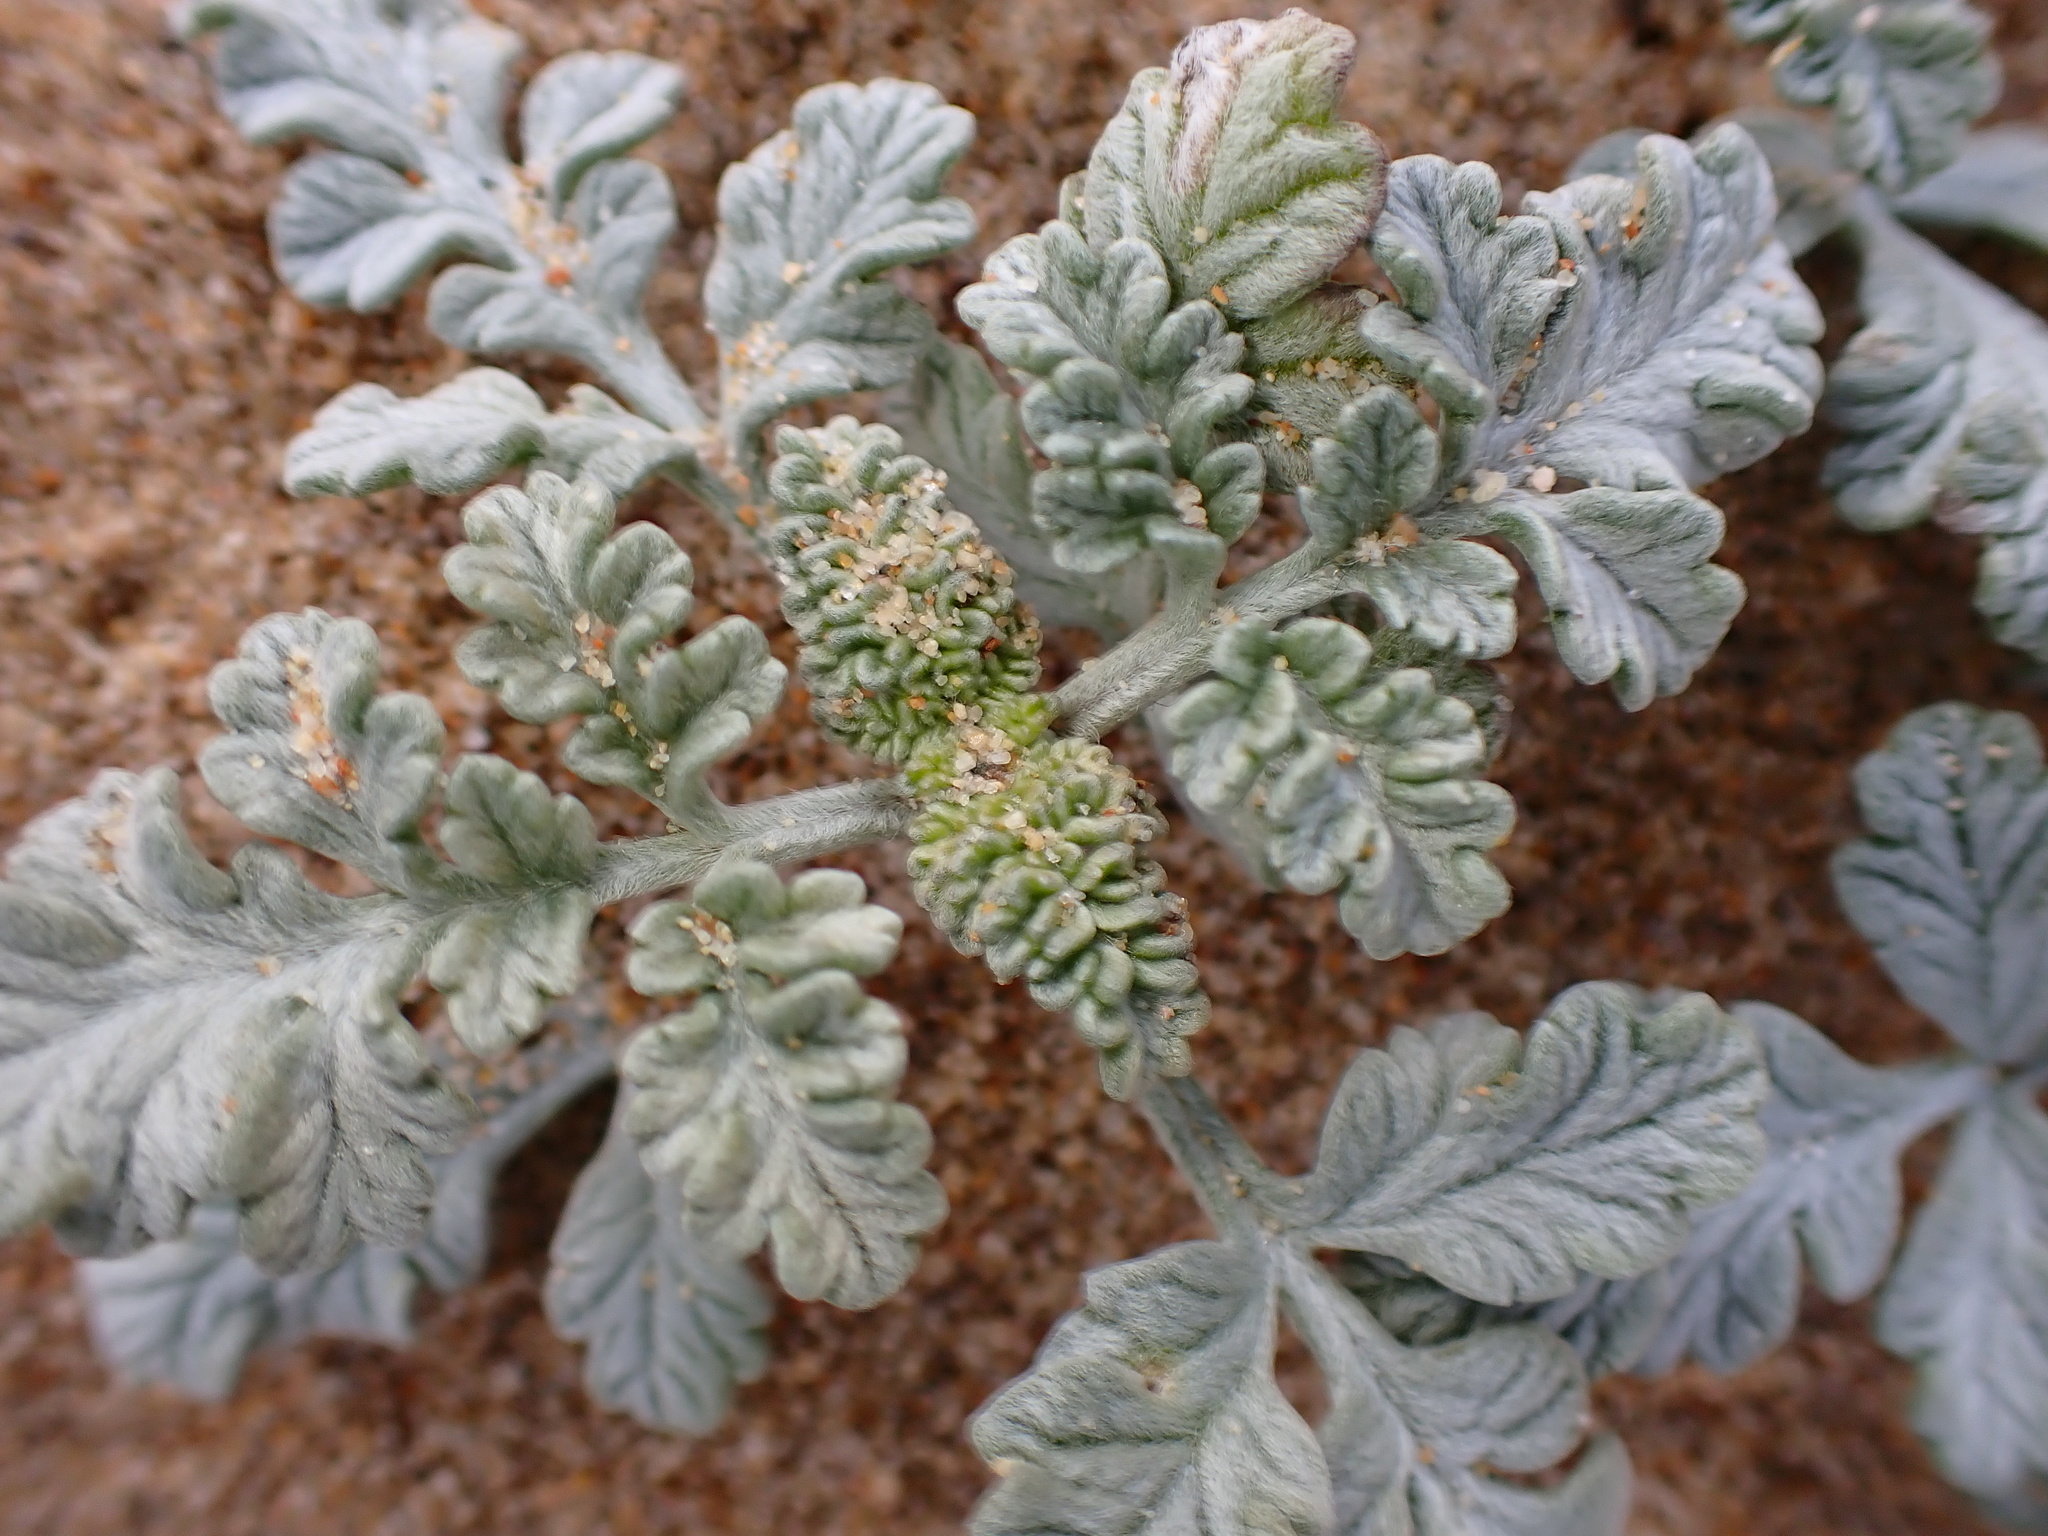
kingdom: Plantae
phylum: Tracheophyta
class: Magnoliopsida
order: Asterales
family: Asteraceae
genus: Ambrosia
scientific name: Ambrosia chamissonis
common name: Beachbur
